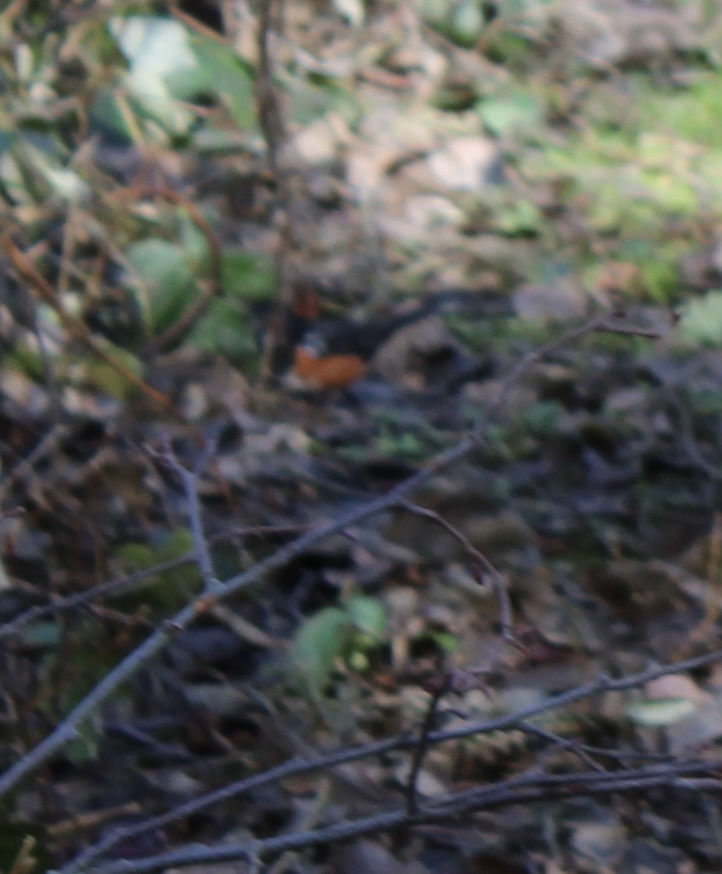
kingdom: Animalia
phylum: Chordata
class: Aves
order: Passeriformes
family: Passerellidae
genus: Pipilo
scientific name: Pipilo maculatus
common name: Spotted towhee
